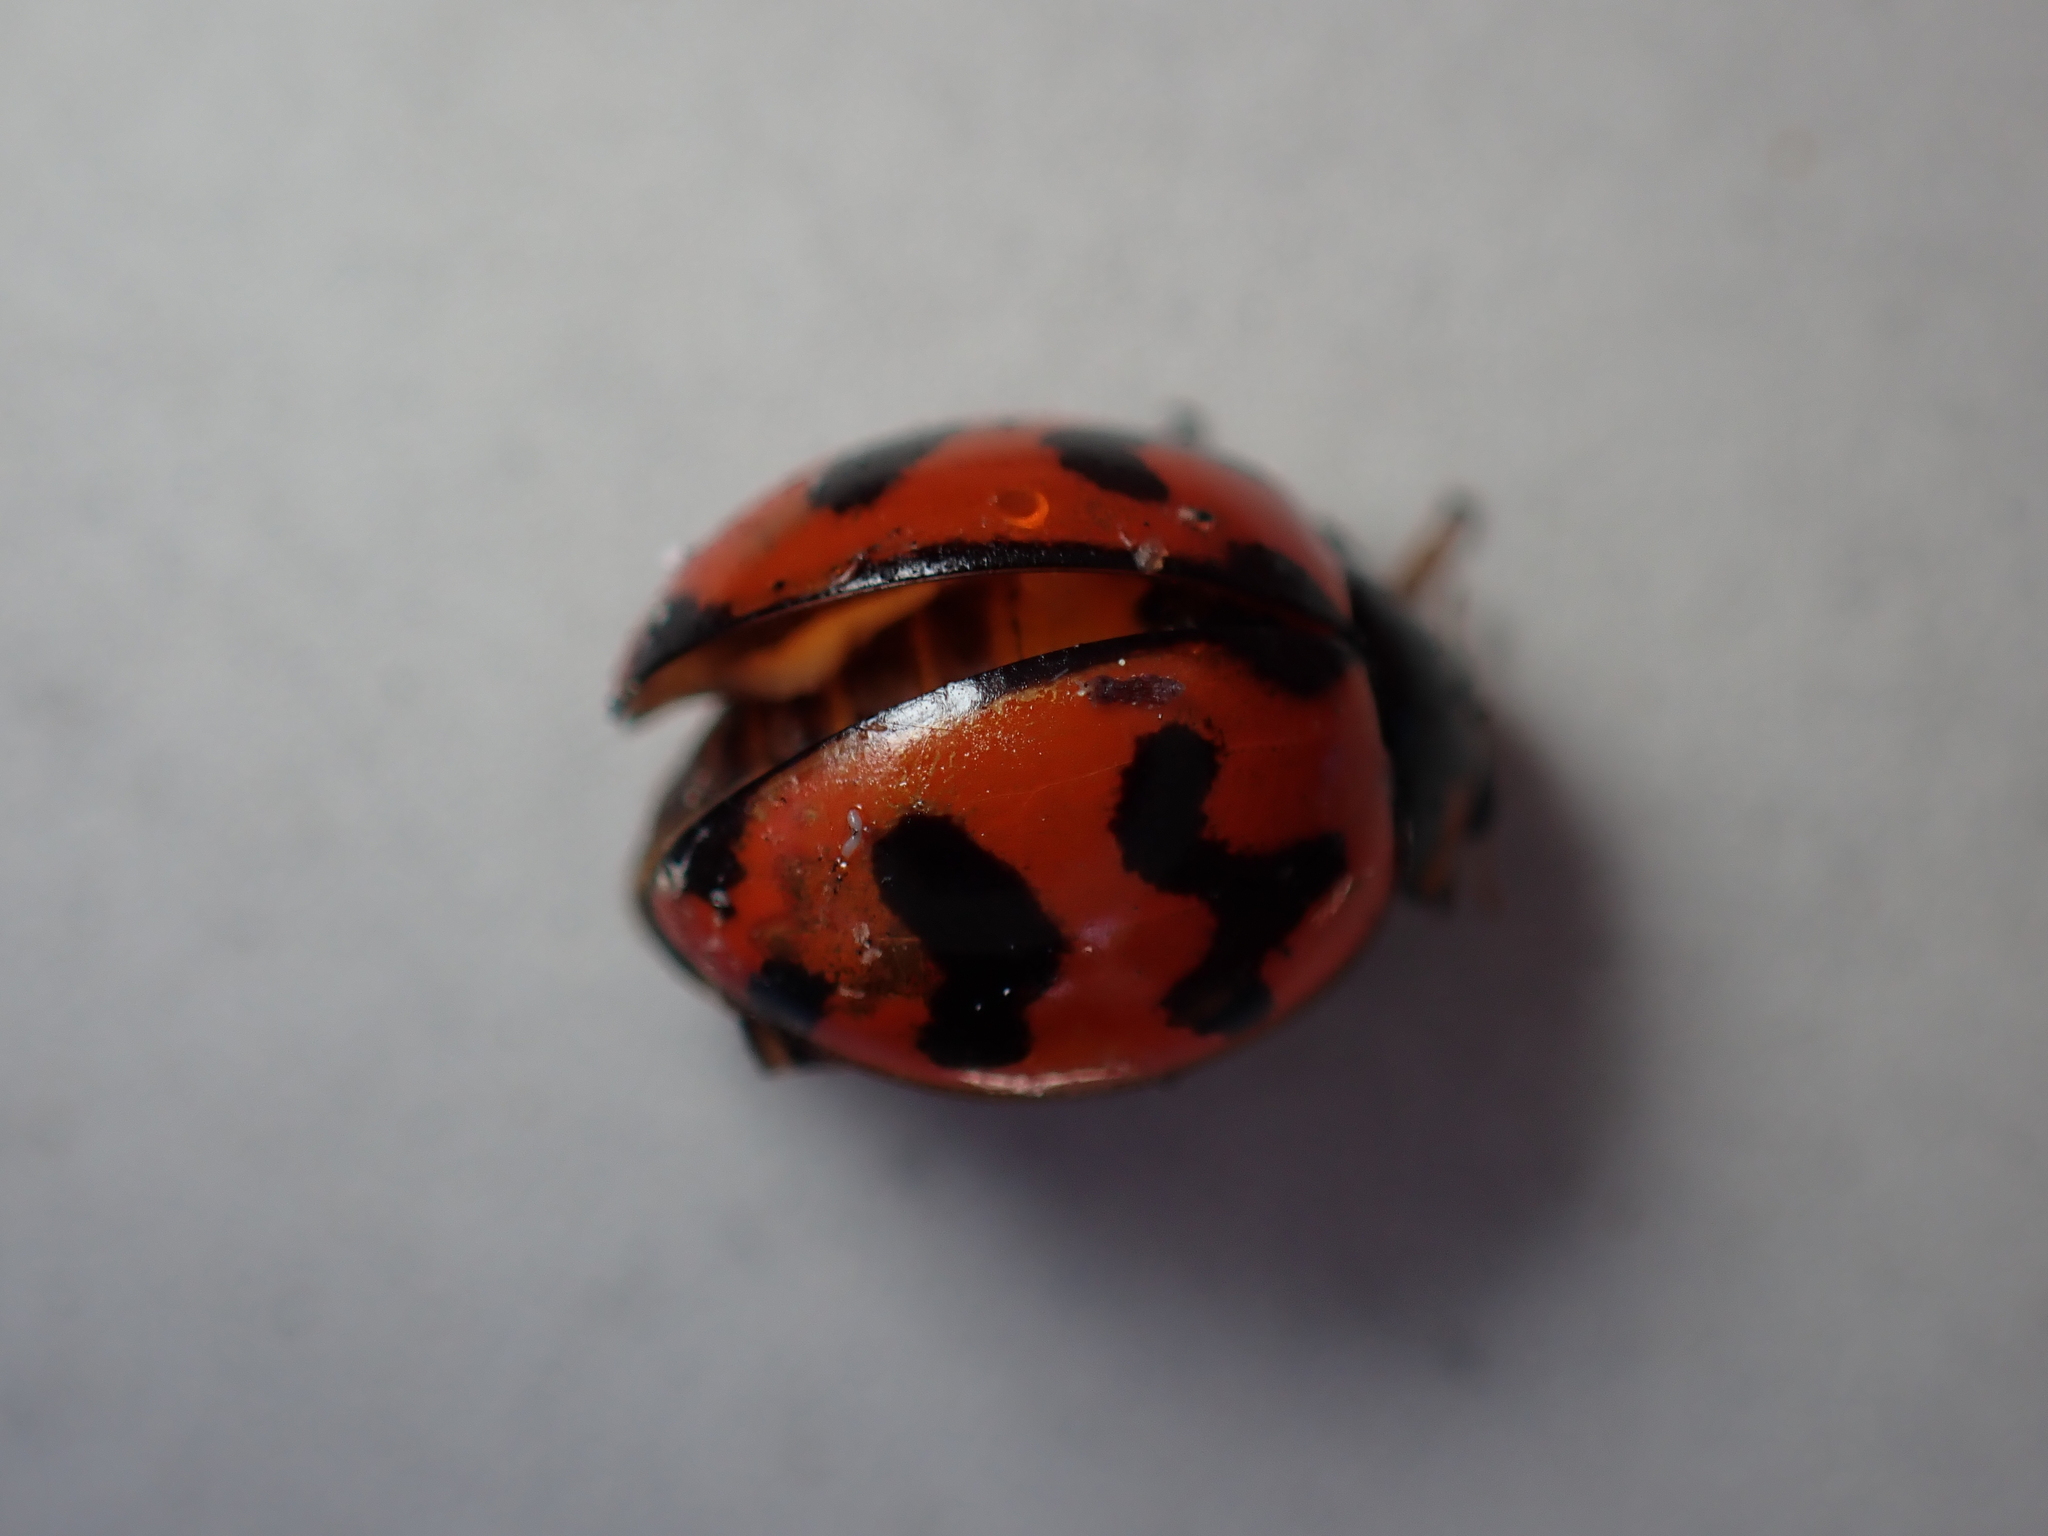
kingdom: Animalia
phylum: Arthropoda
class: Insecta
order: Coleoptera
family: Coccinellidae
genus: Coccinella
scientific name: Coccinella transversalis
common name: Transverse lady beetle
